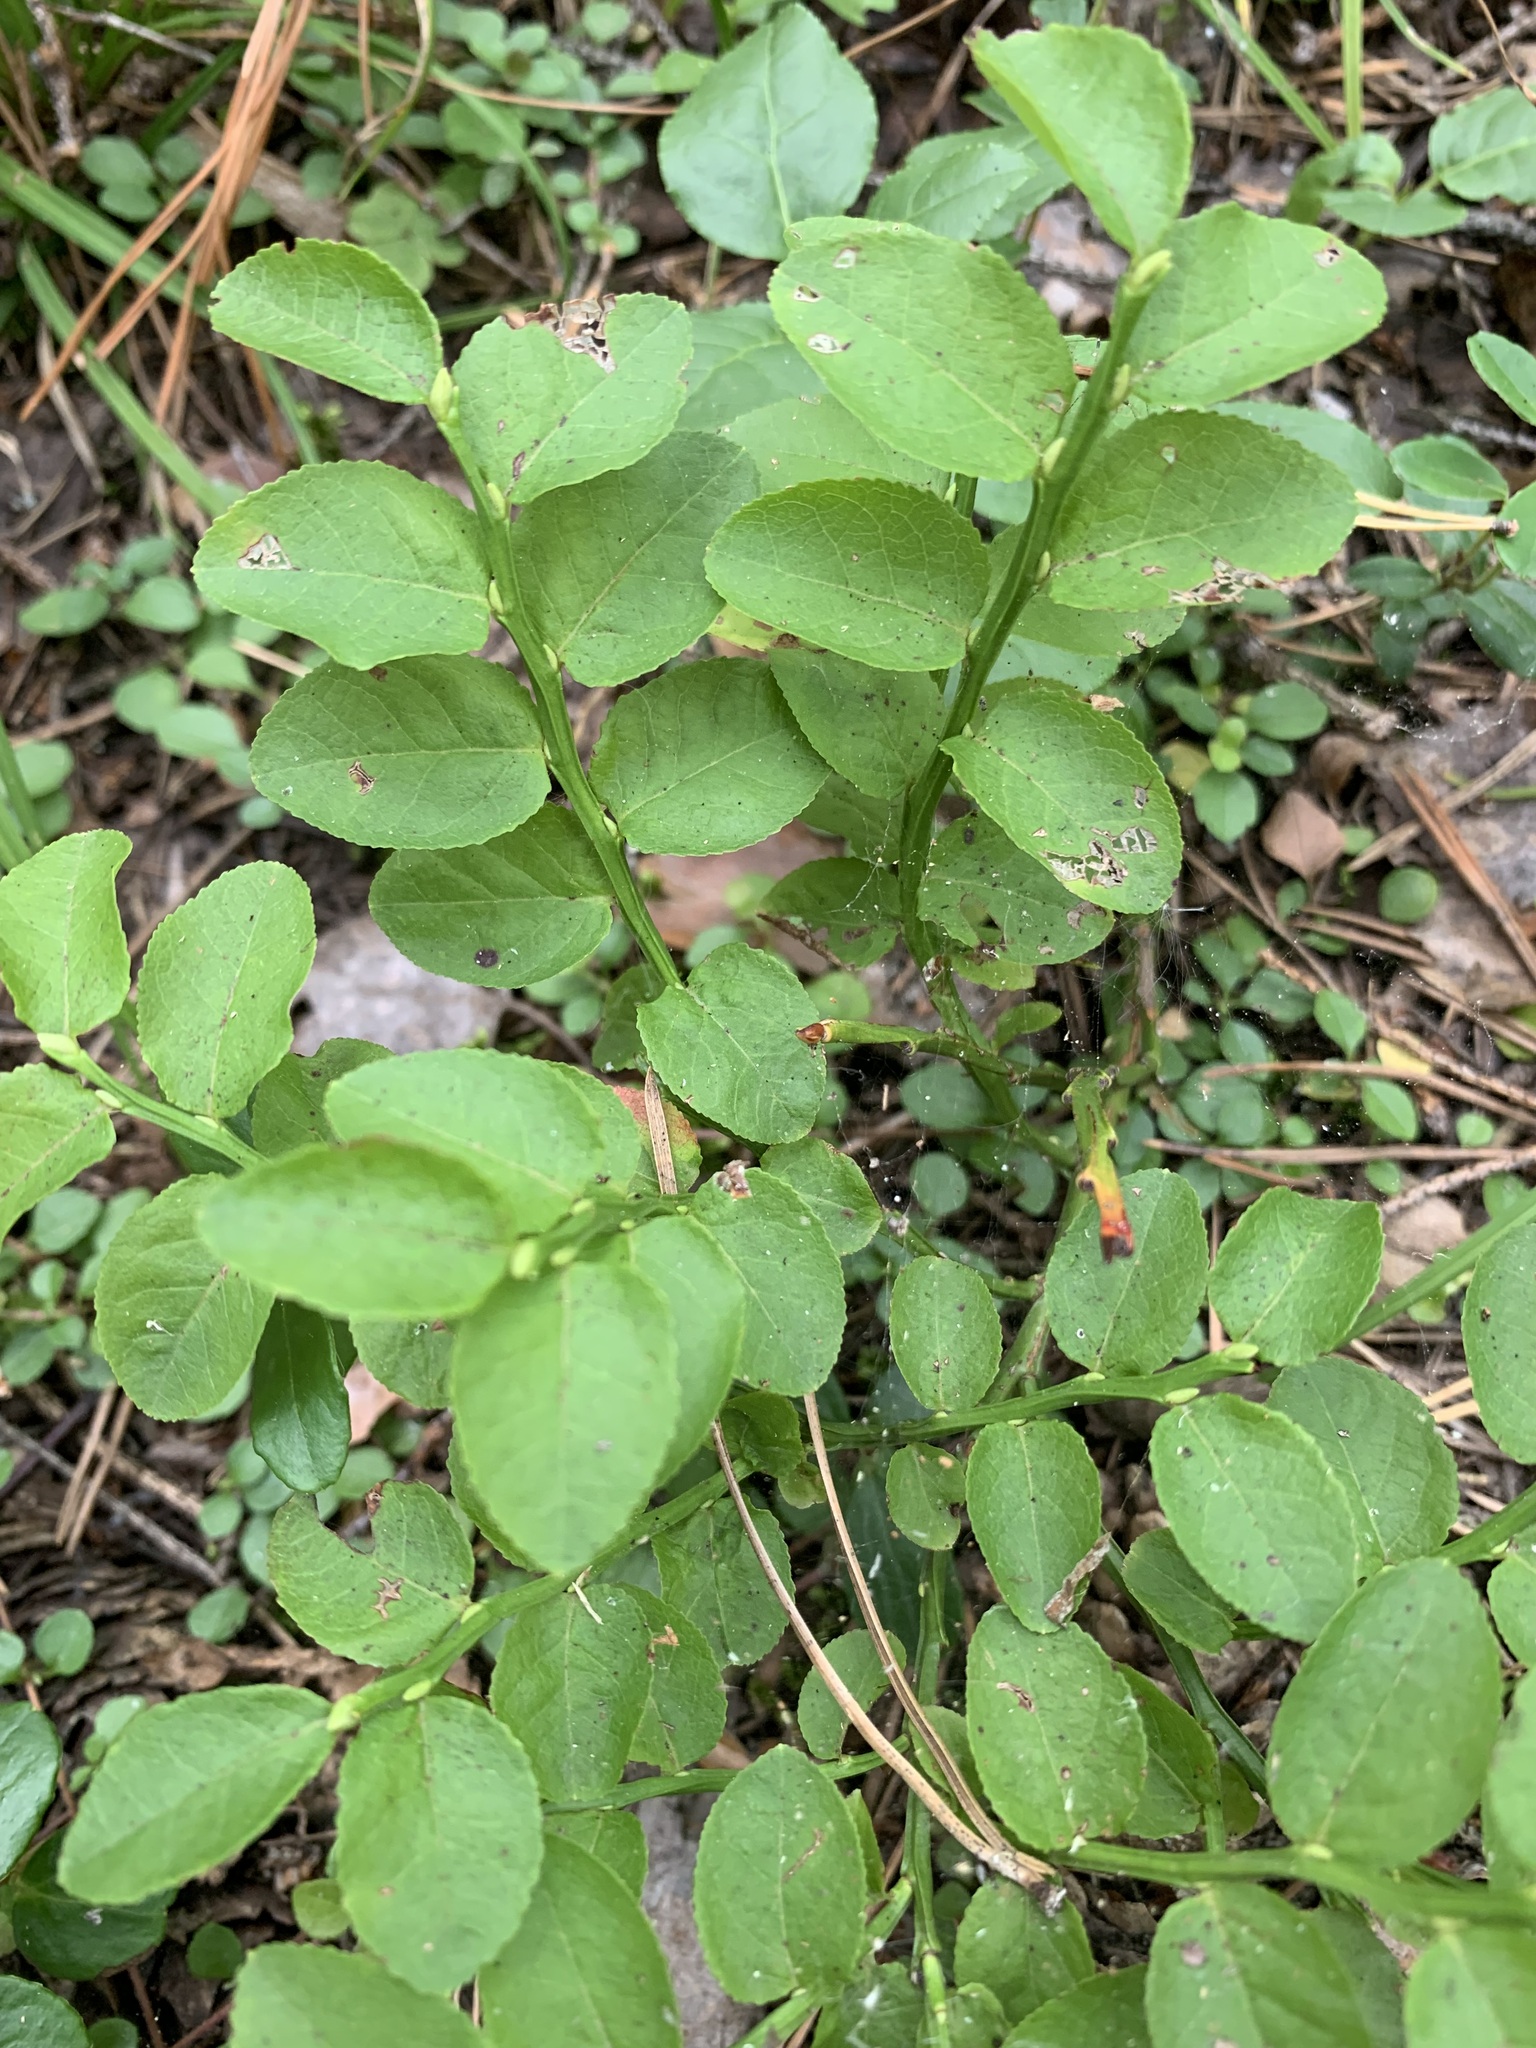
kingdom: Plantae
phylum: Tracheophyta
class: Magnoliopsida
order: Ericales
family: Ericaceae
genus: Vaccinium
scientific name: Vaccinium myrtillus
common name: Bilberry
